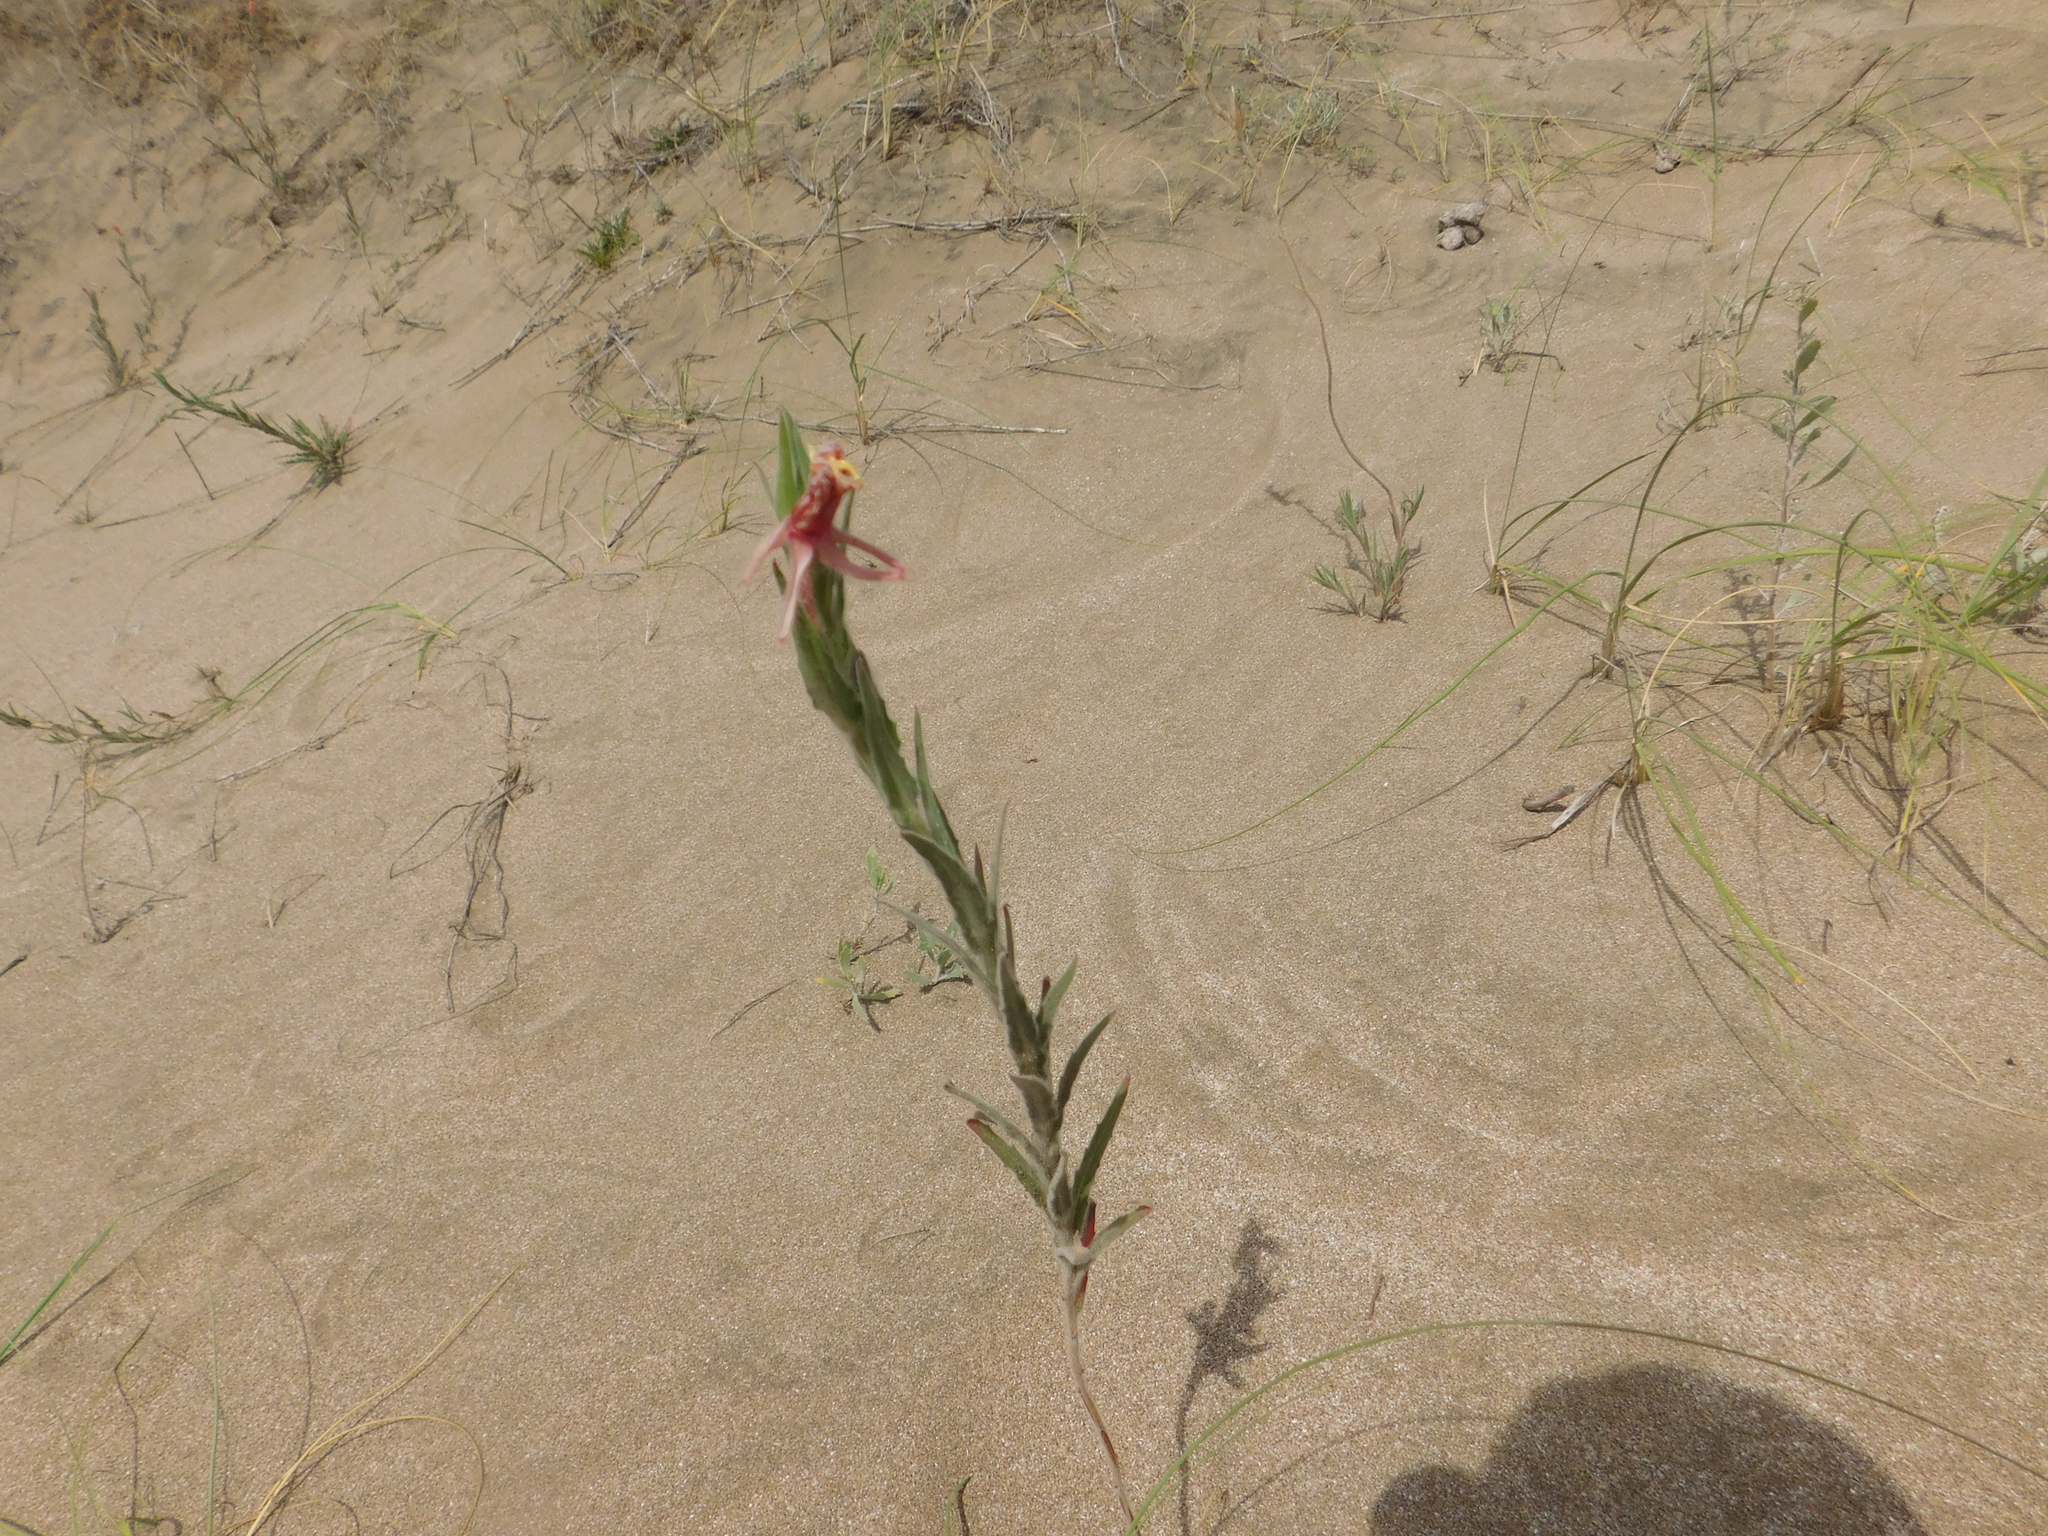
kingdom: Plantae
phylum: Tracheophyta
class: Magnoliopsida
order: Myrtales
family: Onagraceae
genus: Oenothera
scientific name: Oenothera mollissima
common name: Argentine evening primrose
